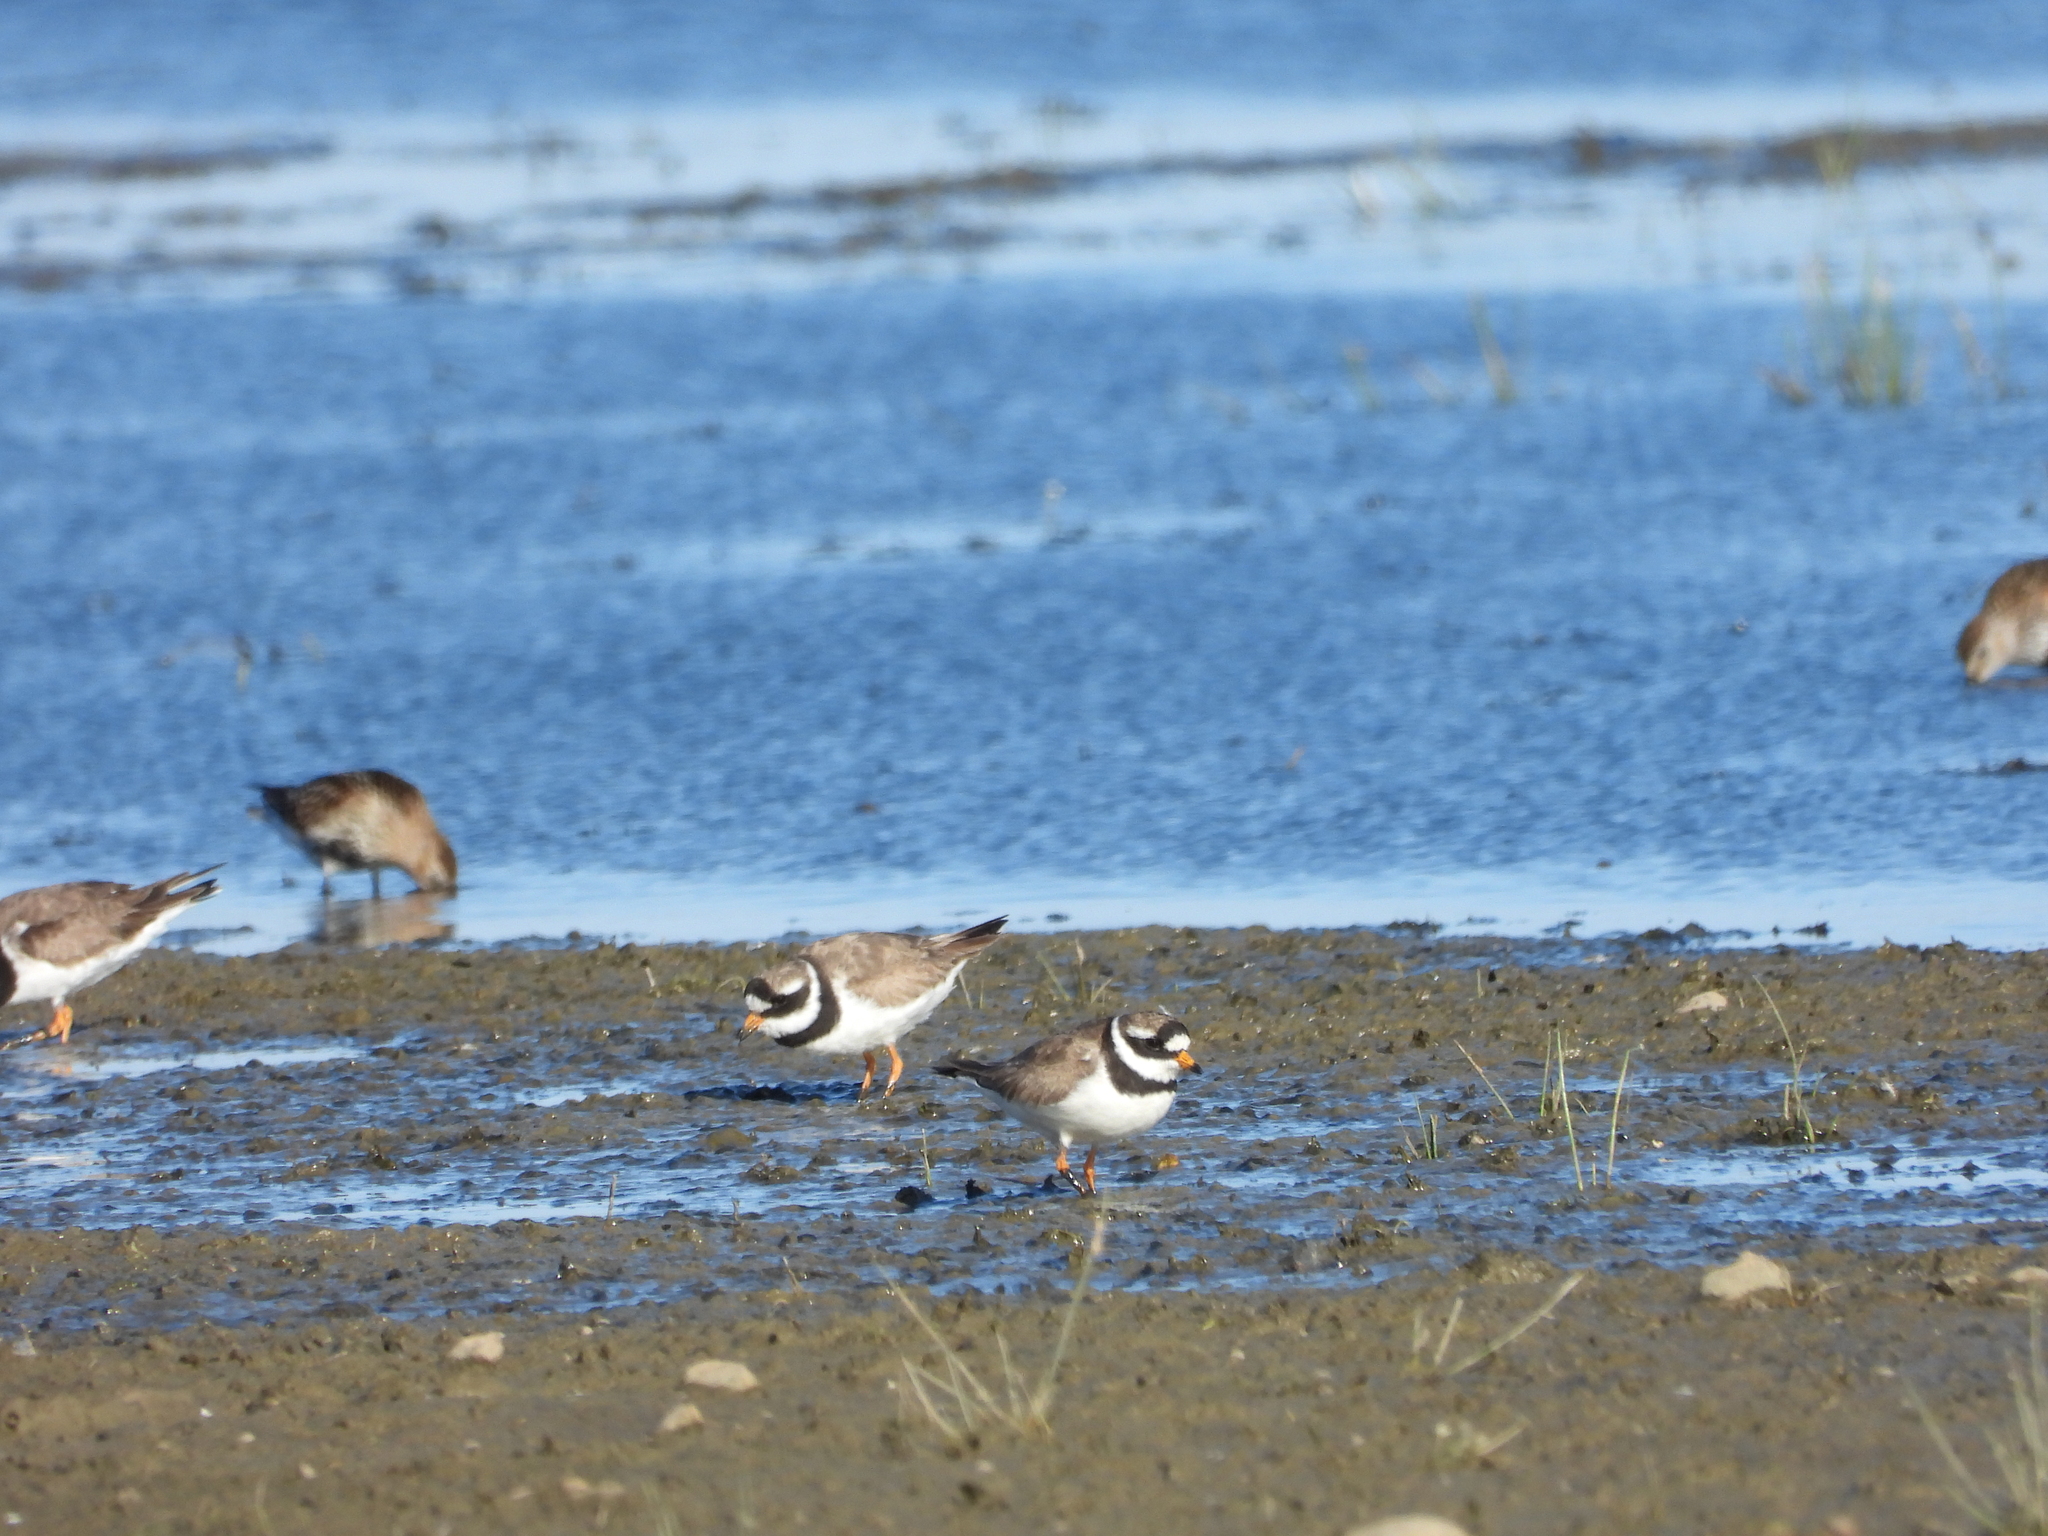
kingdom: Animalia
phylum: Chordata
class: Aves
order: Charadriiformes
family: Charadriidae
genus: Charadrius
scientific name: Charadrius hiaticula
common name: Common ringed plover
